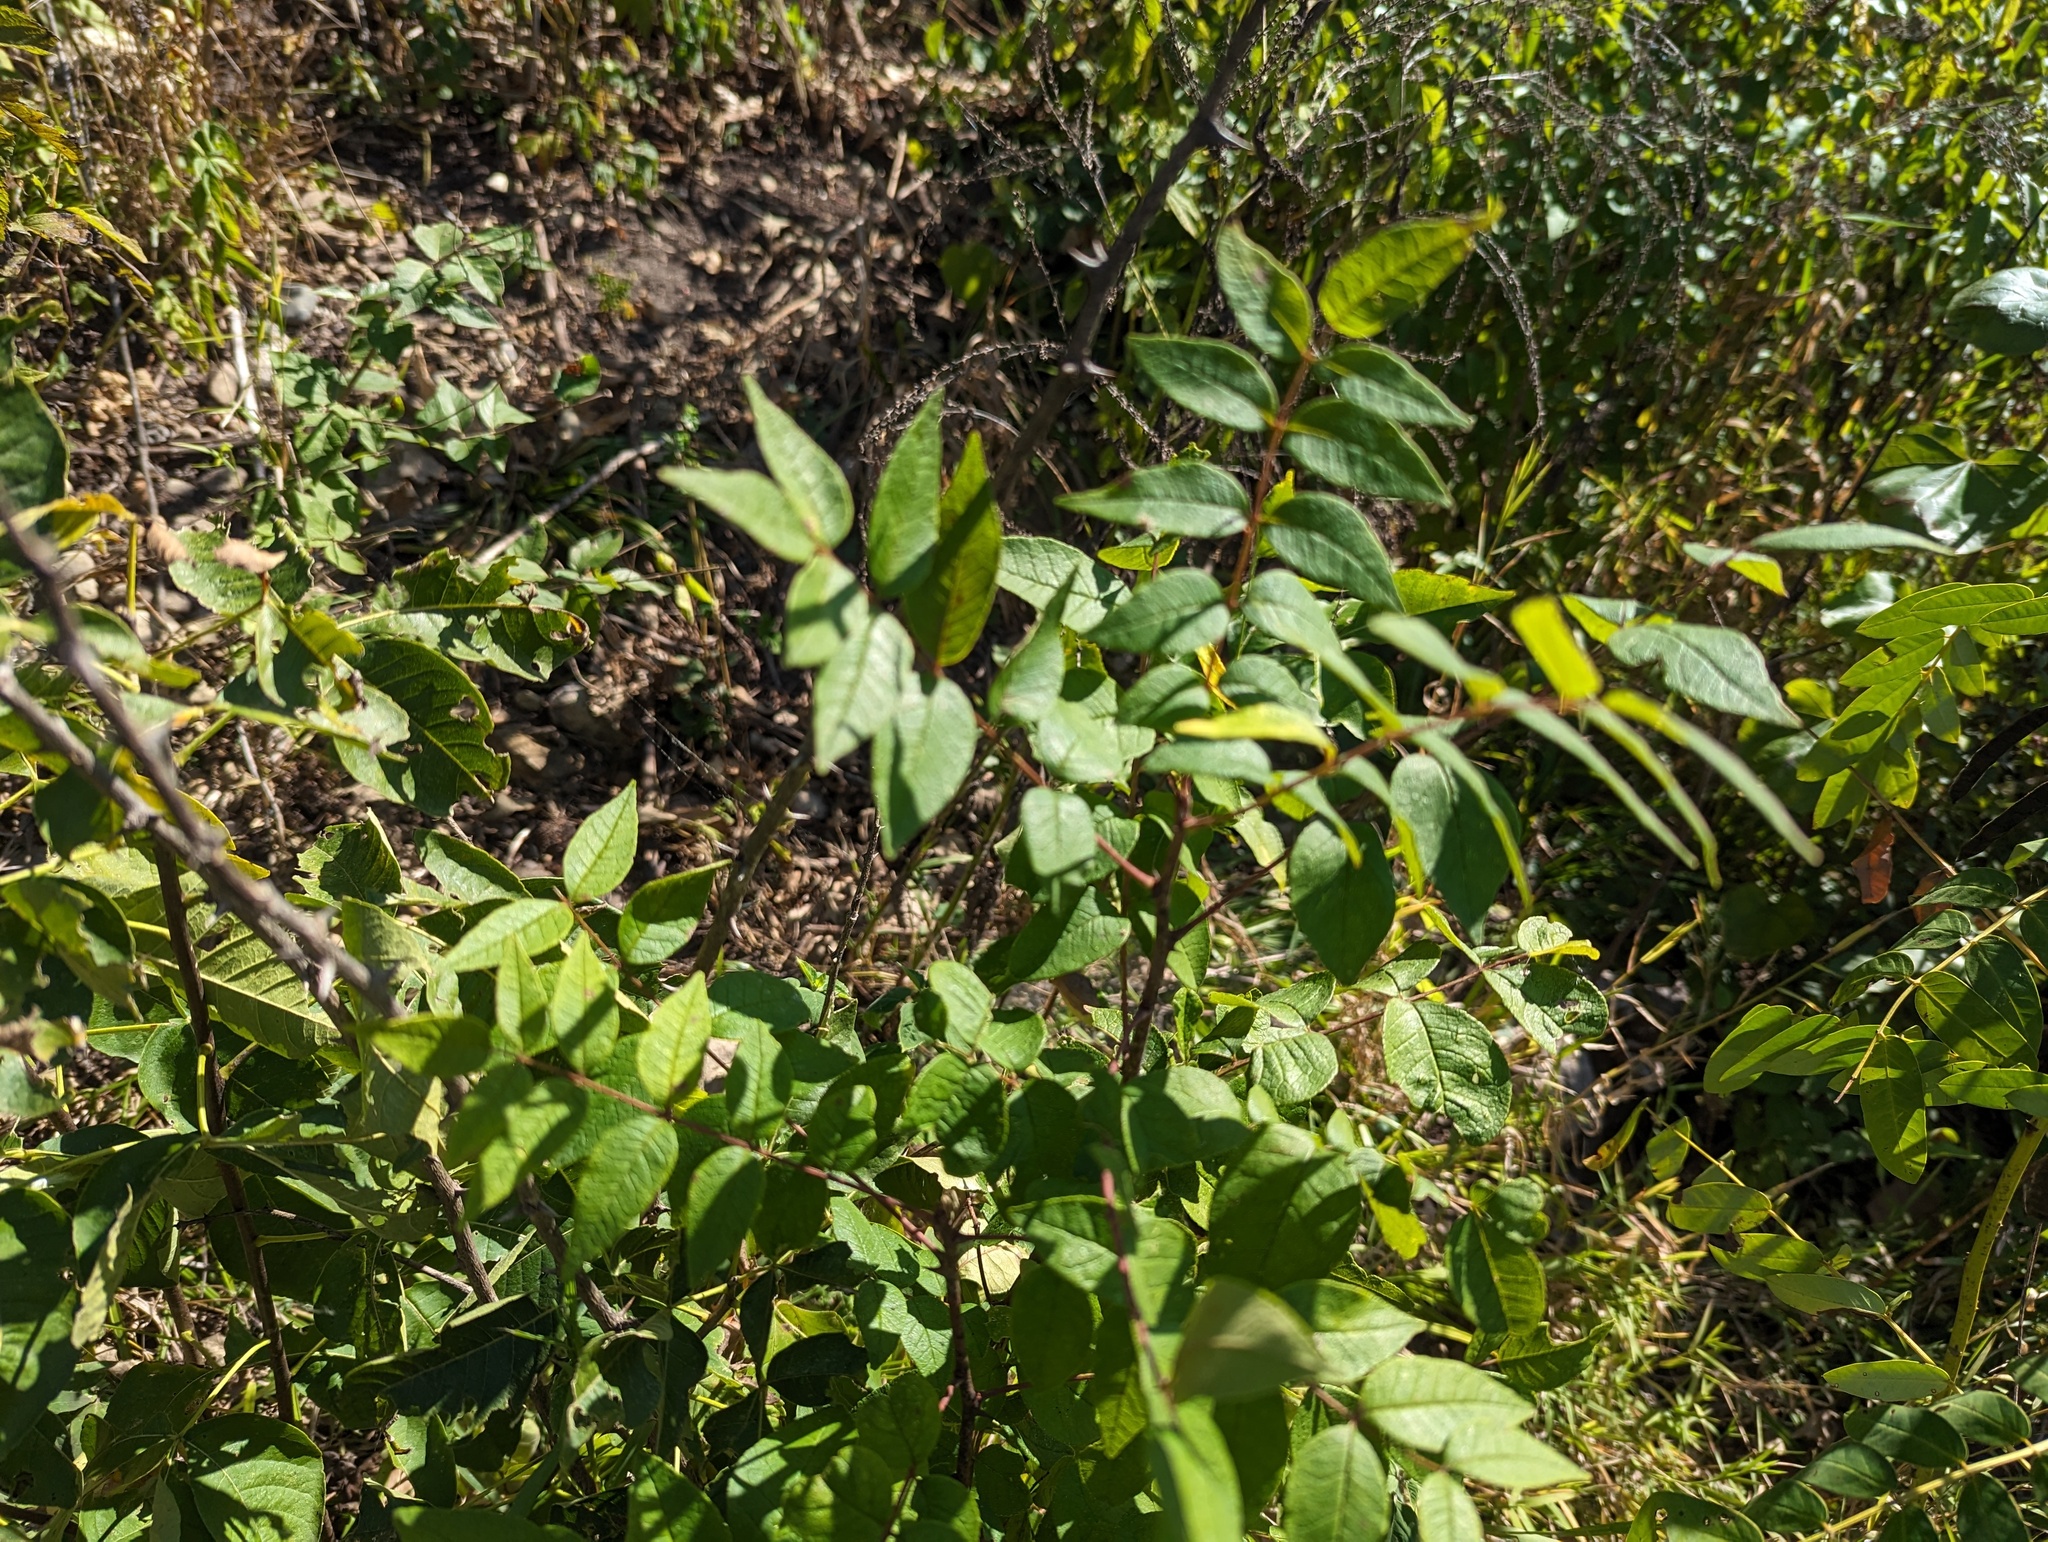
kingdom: Plantae
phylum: Tracheophyta
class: Magnoliopsida
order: Sapindales
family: Rutaceae
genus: Zanthoxylum
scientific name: Zanthoxylum americanum
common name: Northern prickly-ash
